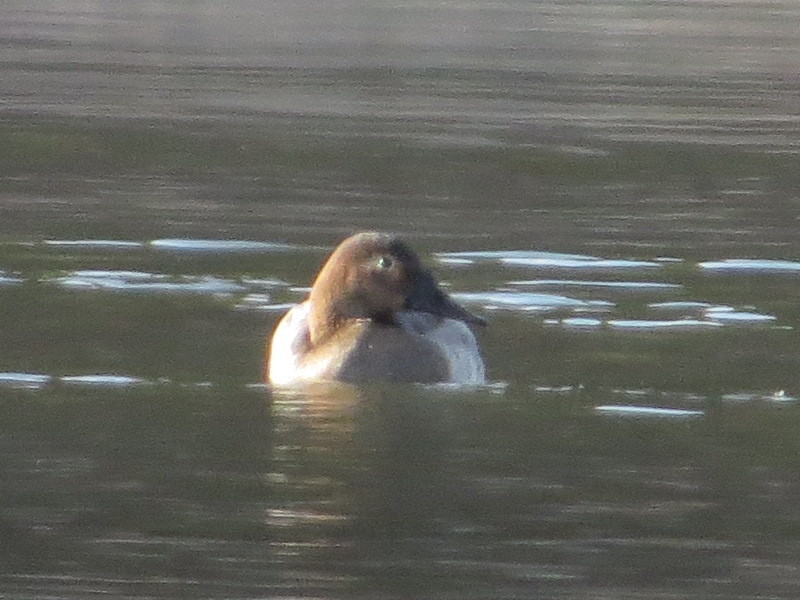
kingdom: Animalia
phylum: Chordata
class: Aves
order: Anseriformes
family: Anatidae
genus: Aythya
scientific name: Aythya valisineria
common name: Canvasback
